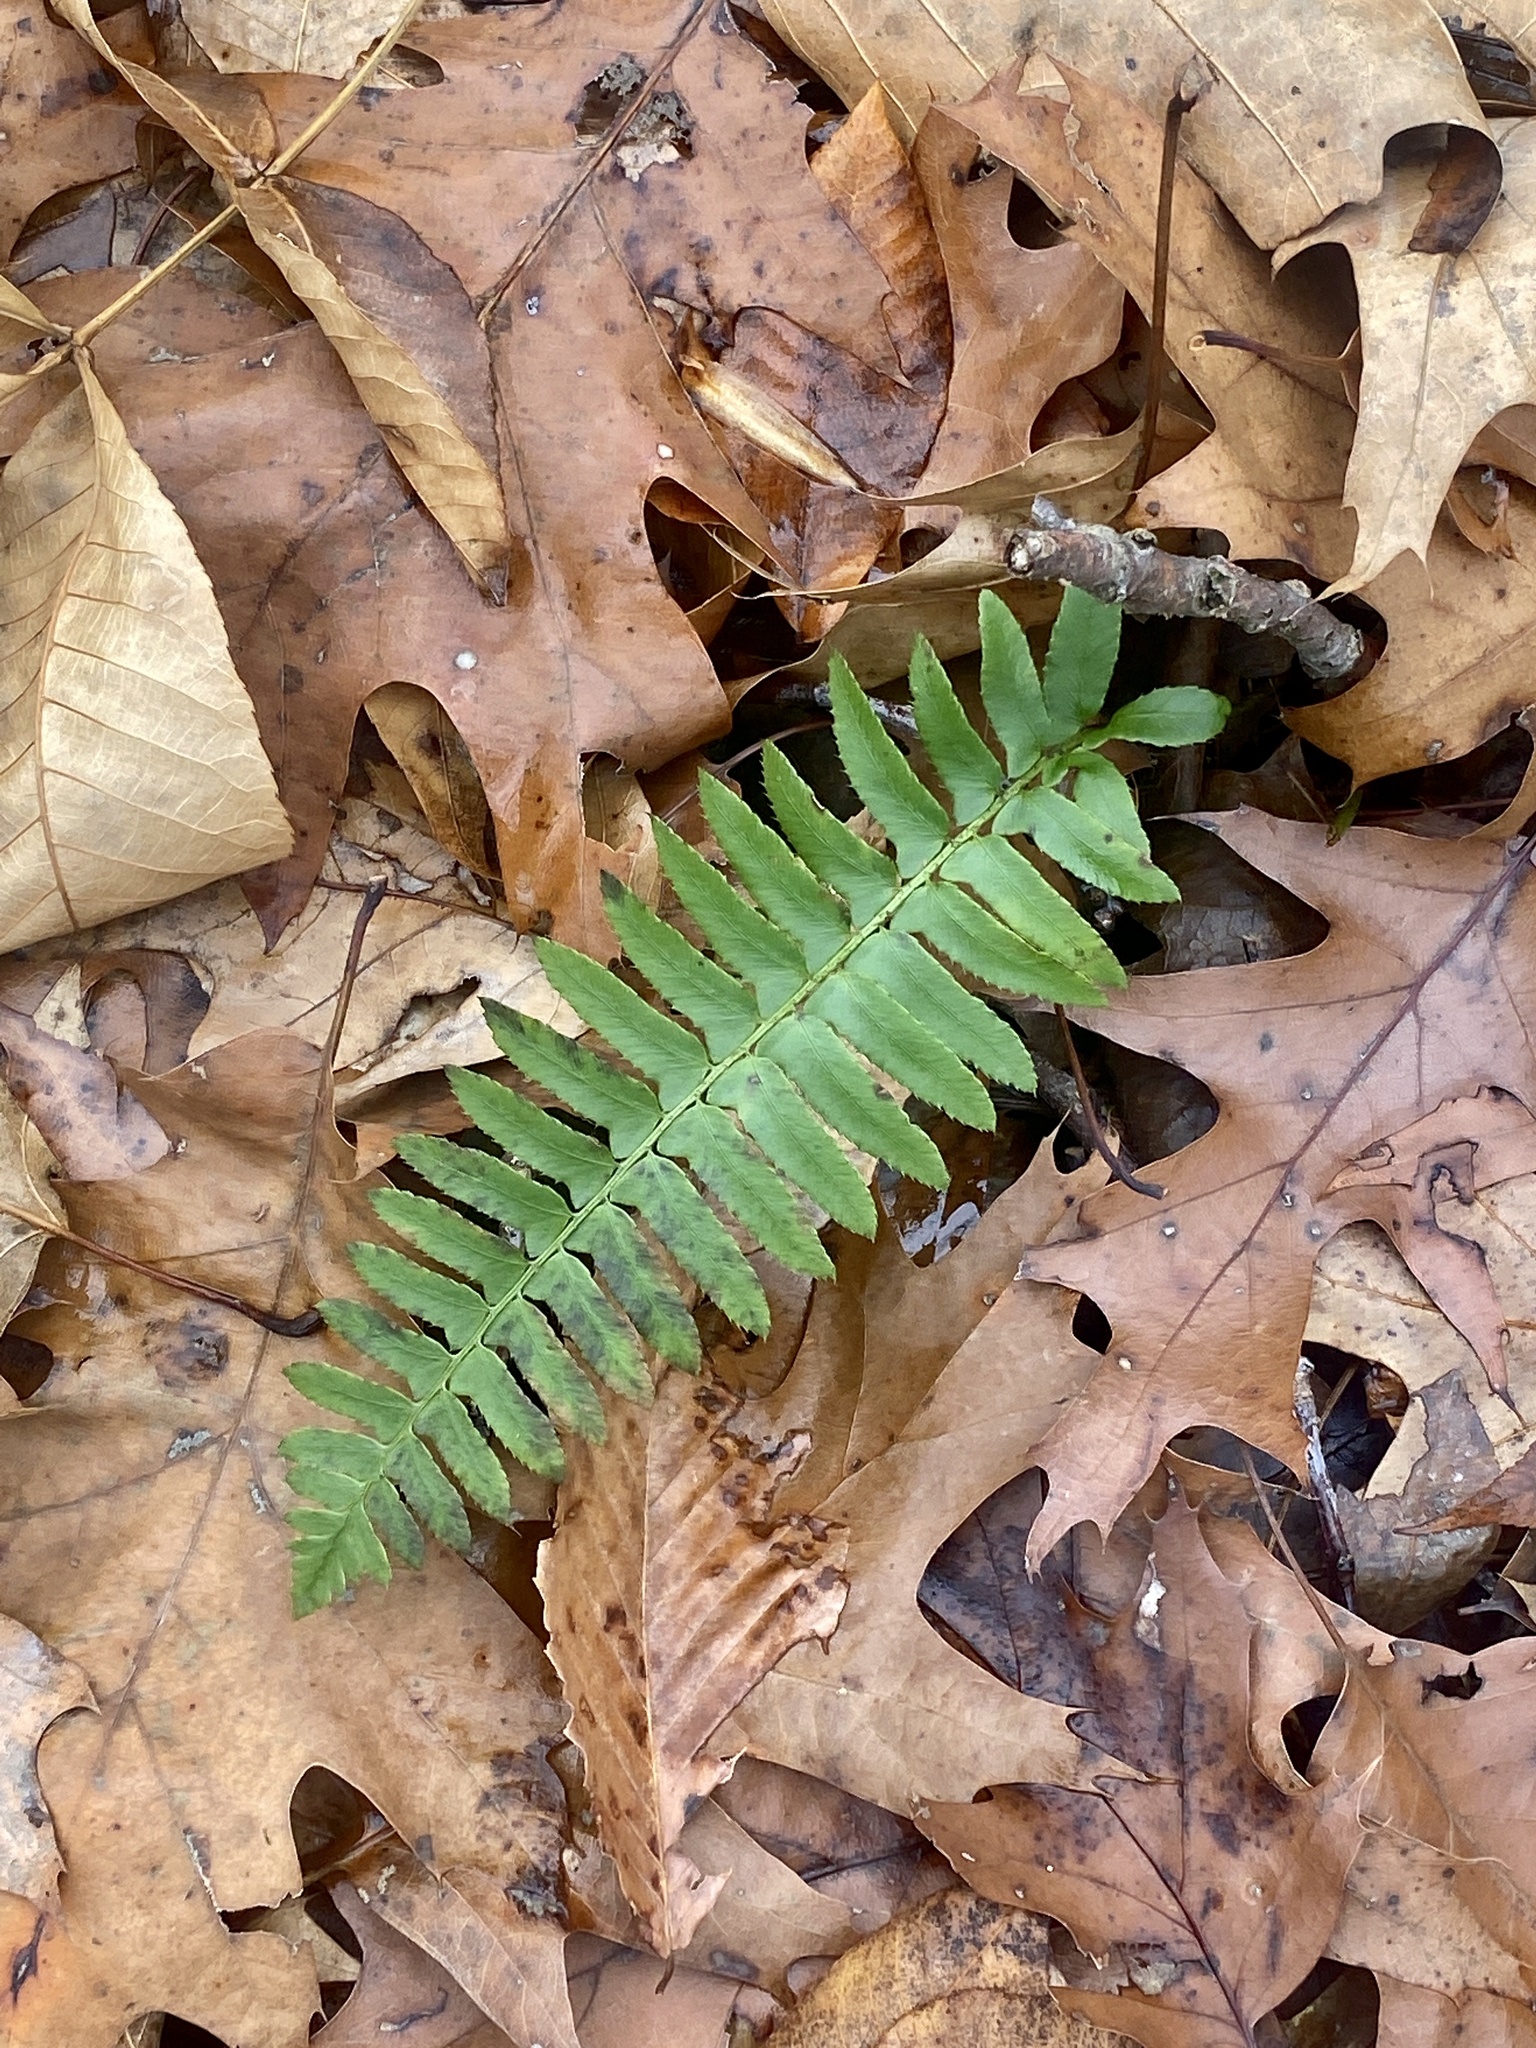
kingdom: Plantae
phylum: Tracheophyta
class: Polypodiopsida
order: Polypodiales
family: Dryopteridaceae
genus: Polystichum
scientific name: Polystichum acrostichoides
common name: Christmas fern
